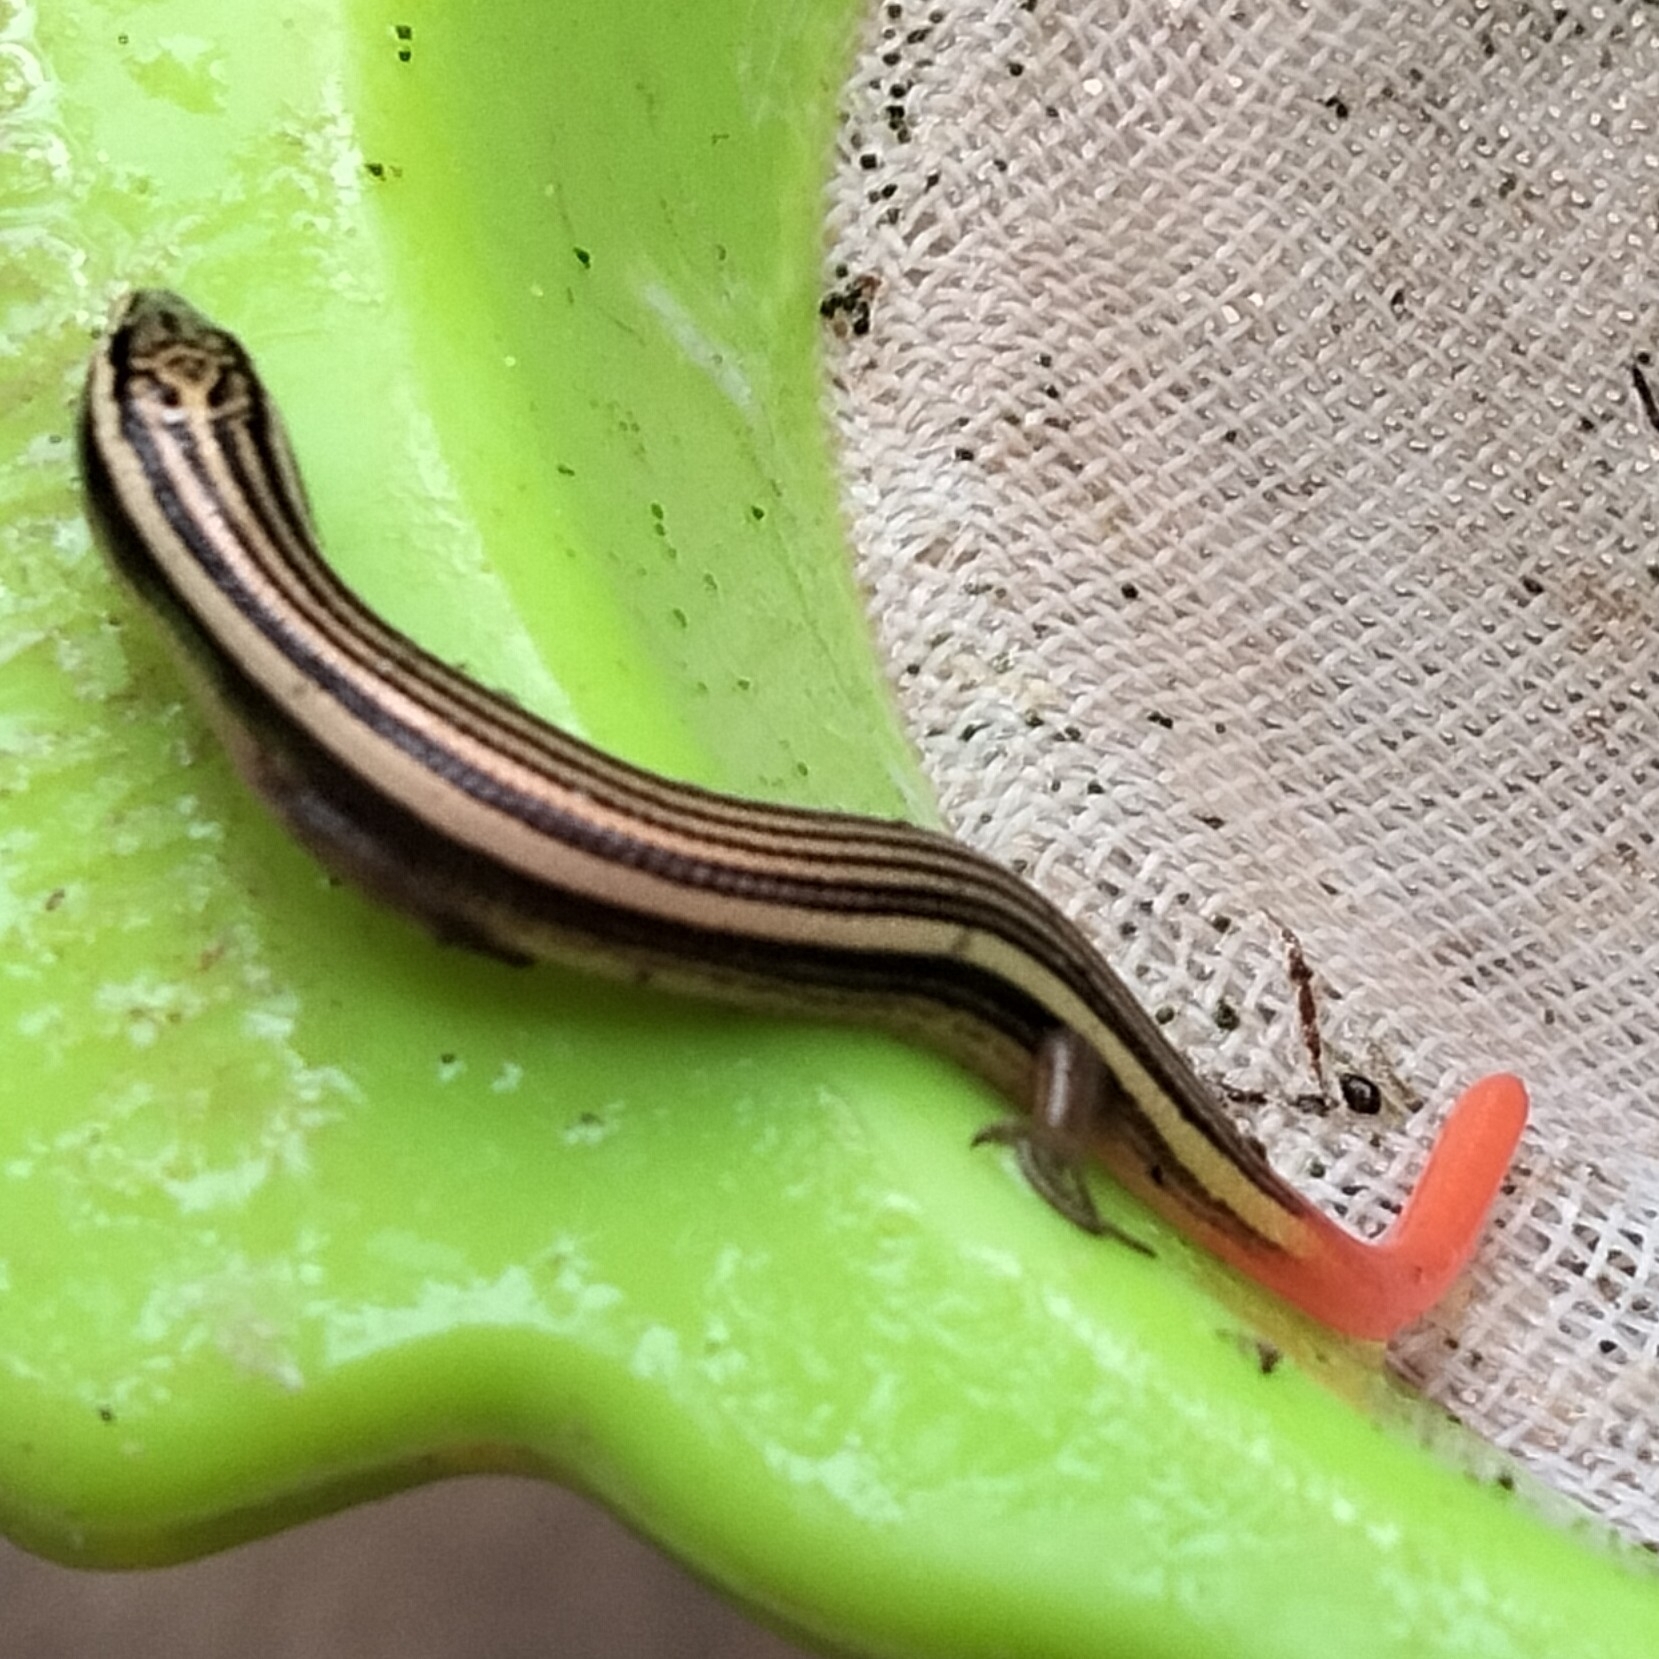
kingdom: Animalia
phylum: Chordata
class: Squamata
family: Scincidae
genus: Riopa
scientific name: Riopa punctata
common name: Common dotted garden skink
